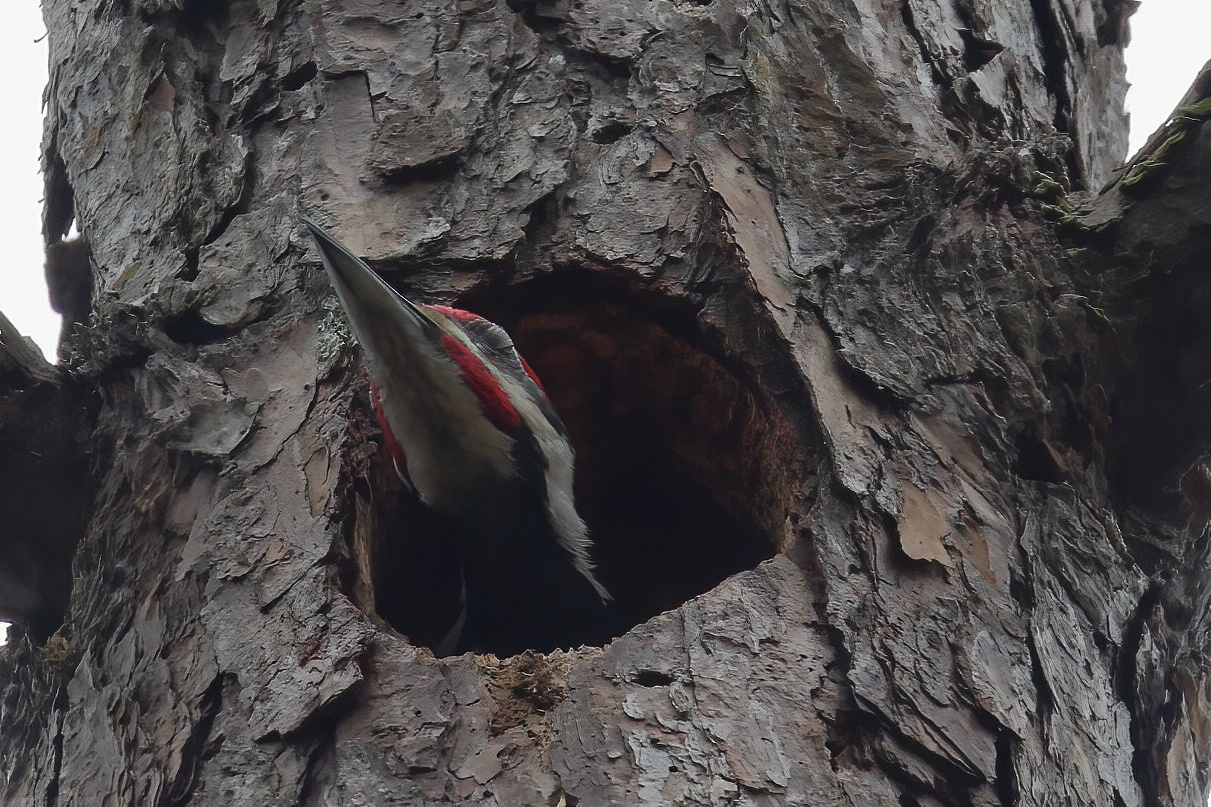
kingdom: Animalia
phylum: Chordata
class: Aves
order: Piciformes
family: Picidae
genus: Dryocopus
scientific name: Dryocopus pileatus
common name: Pileated woodpecker
